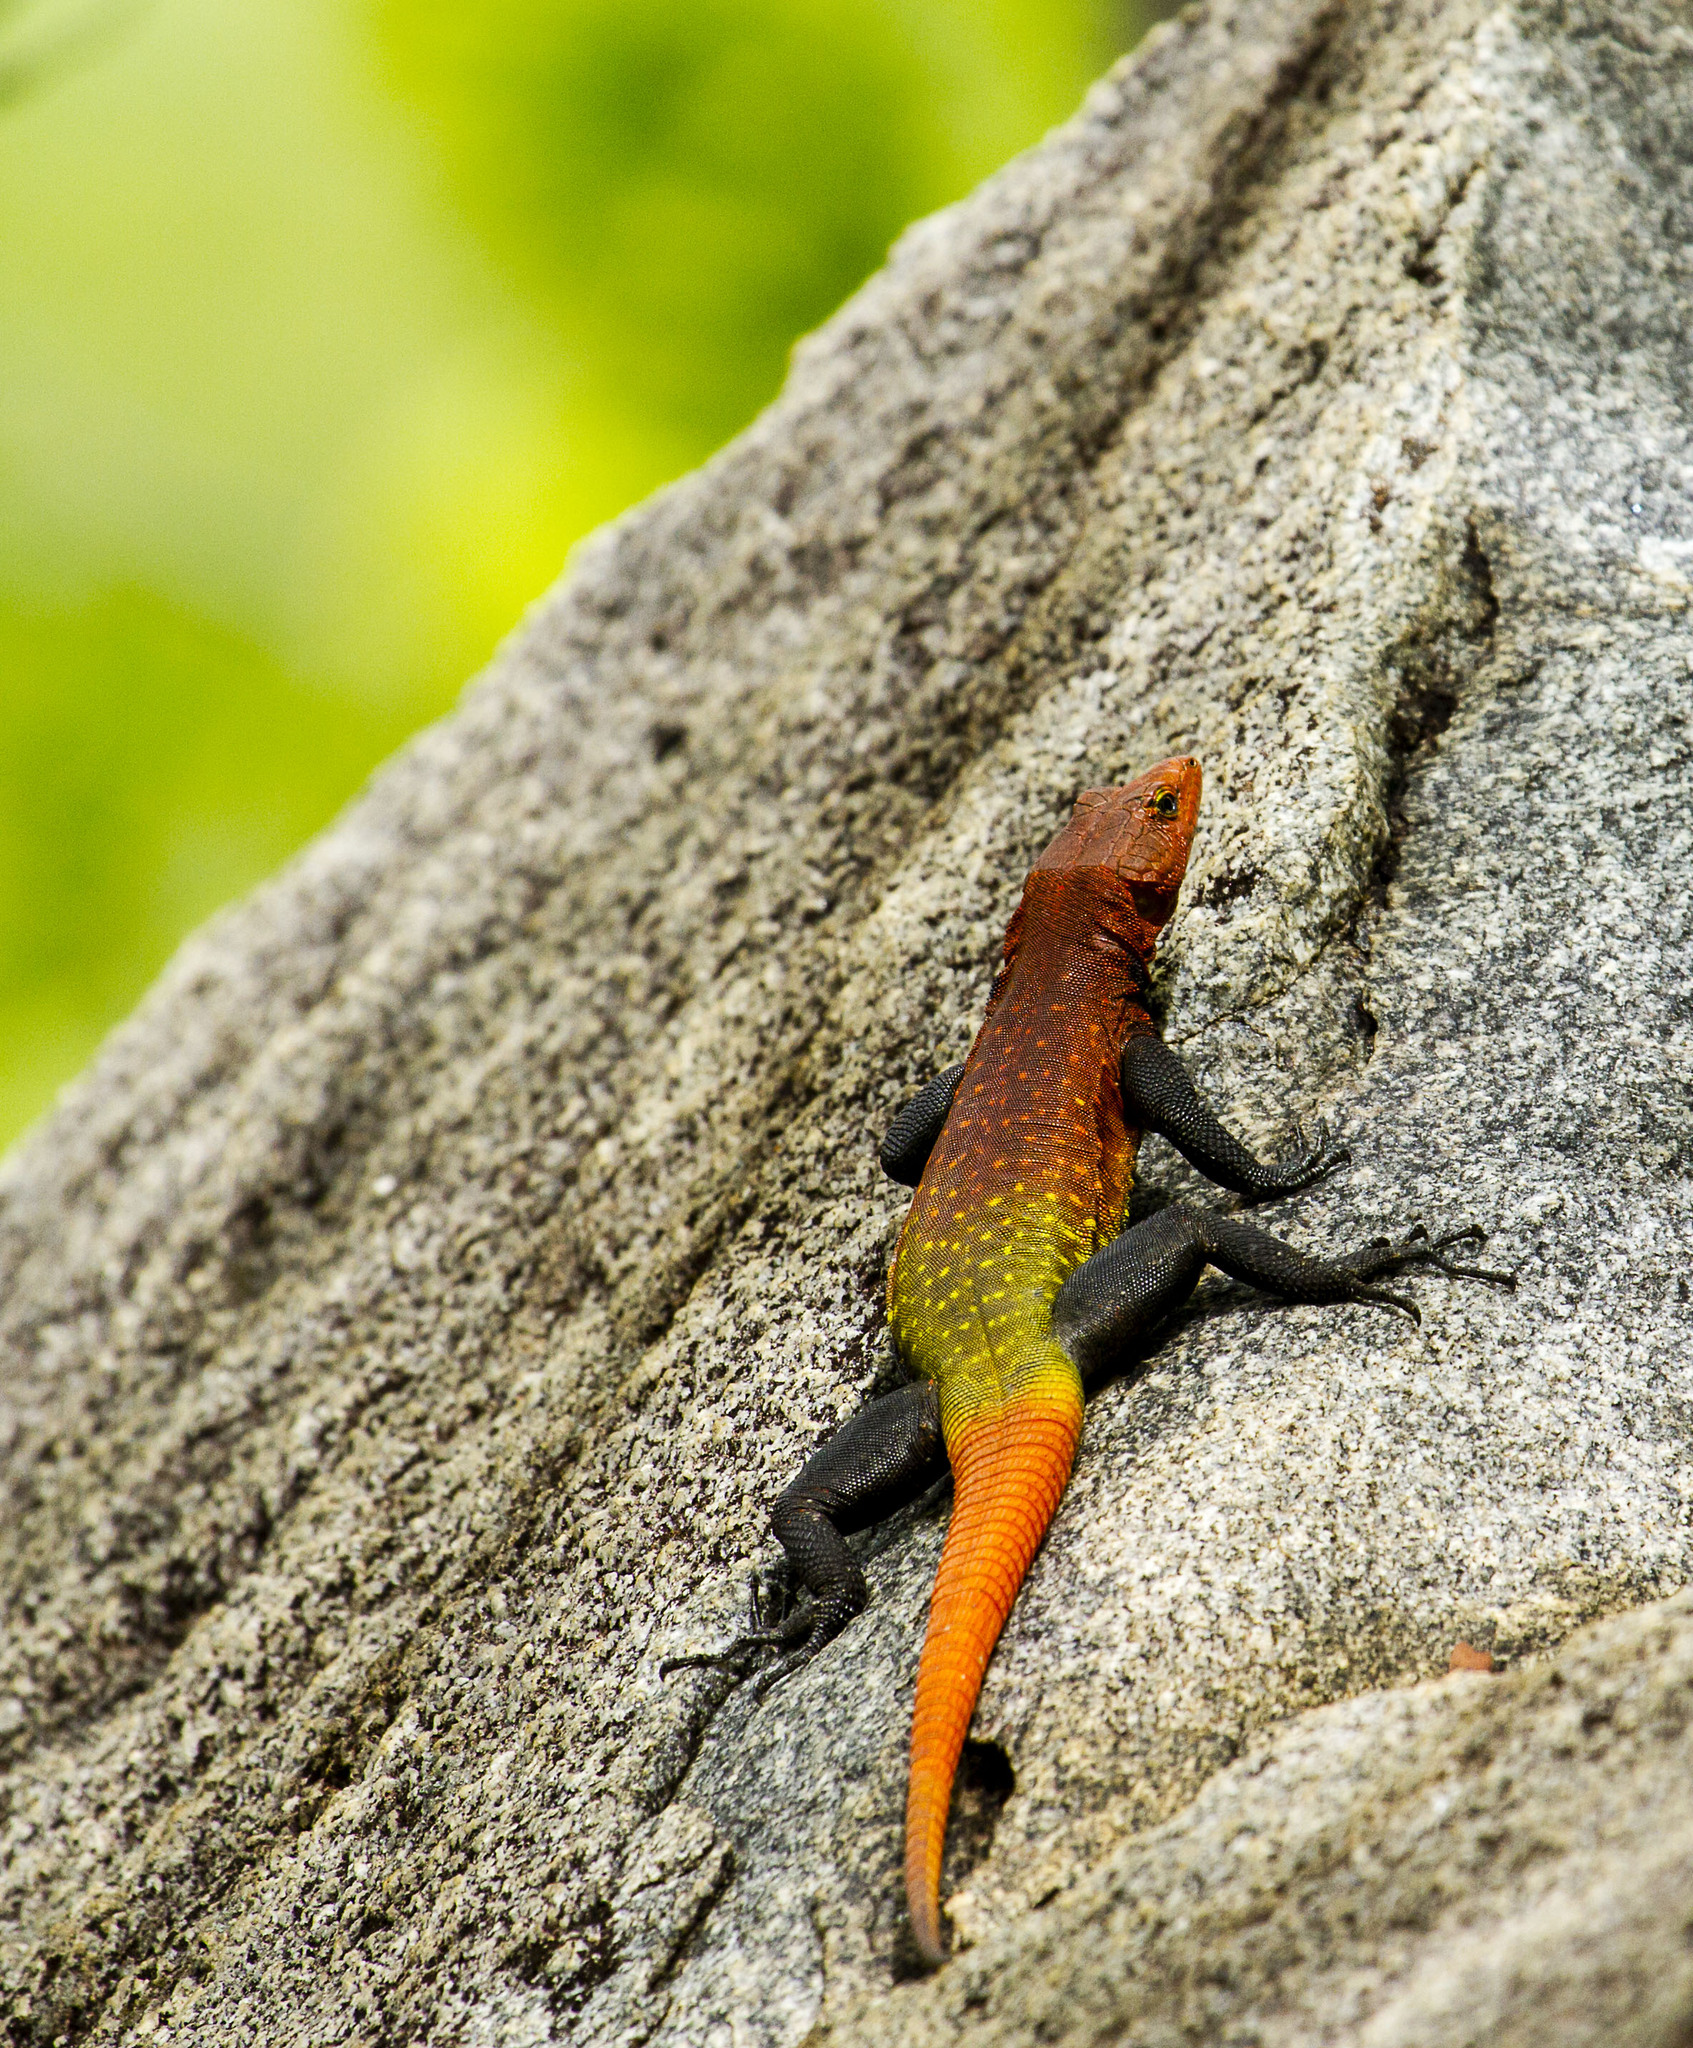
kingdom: Animalia
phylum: Chordata
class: Squamata
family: Cordylidae
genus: Platysaurus
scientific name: Platysaurus imperator
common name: Emperor flat lizard
